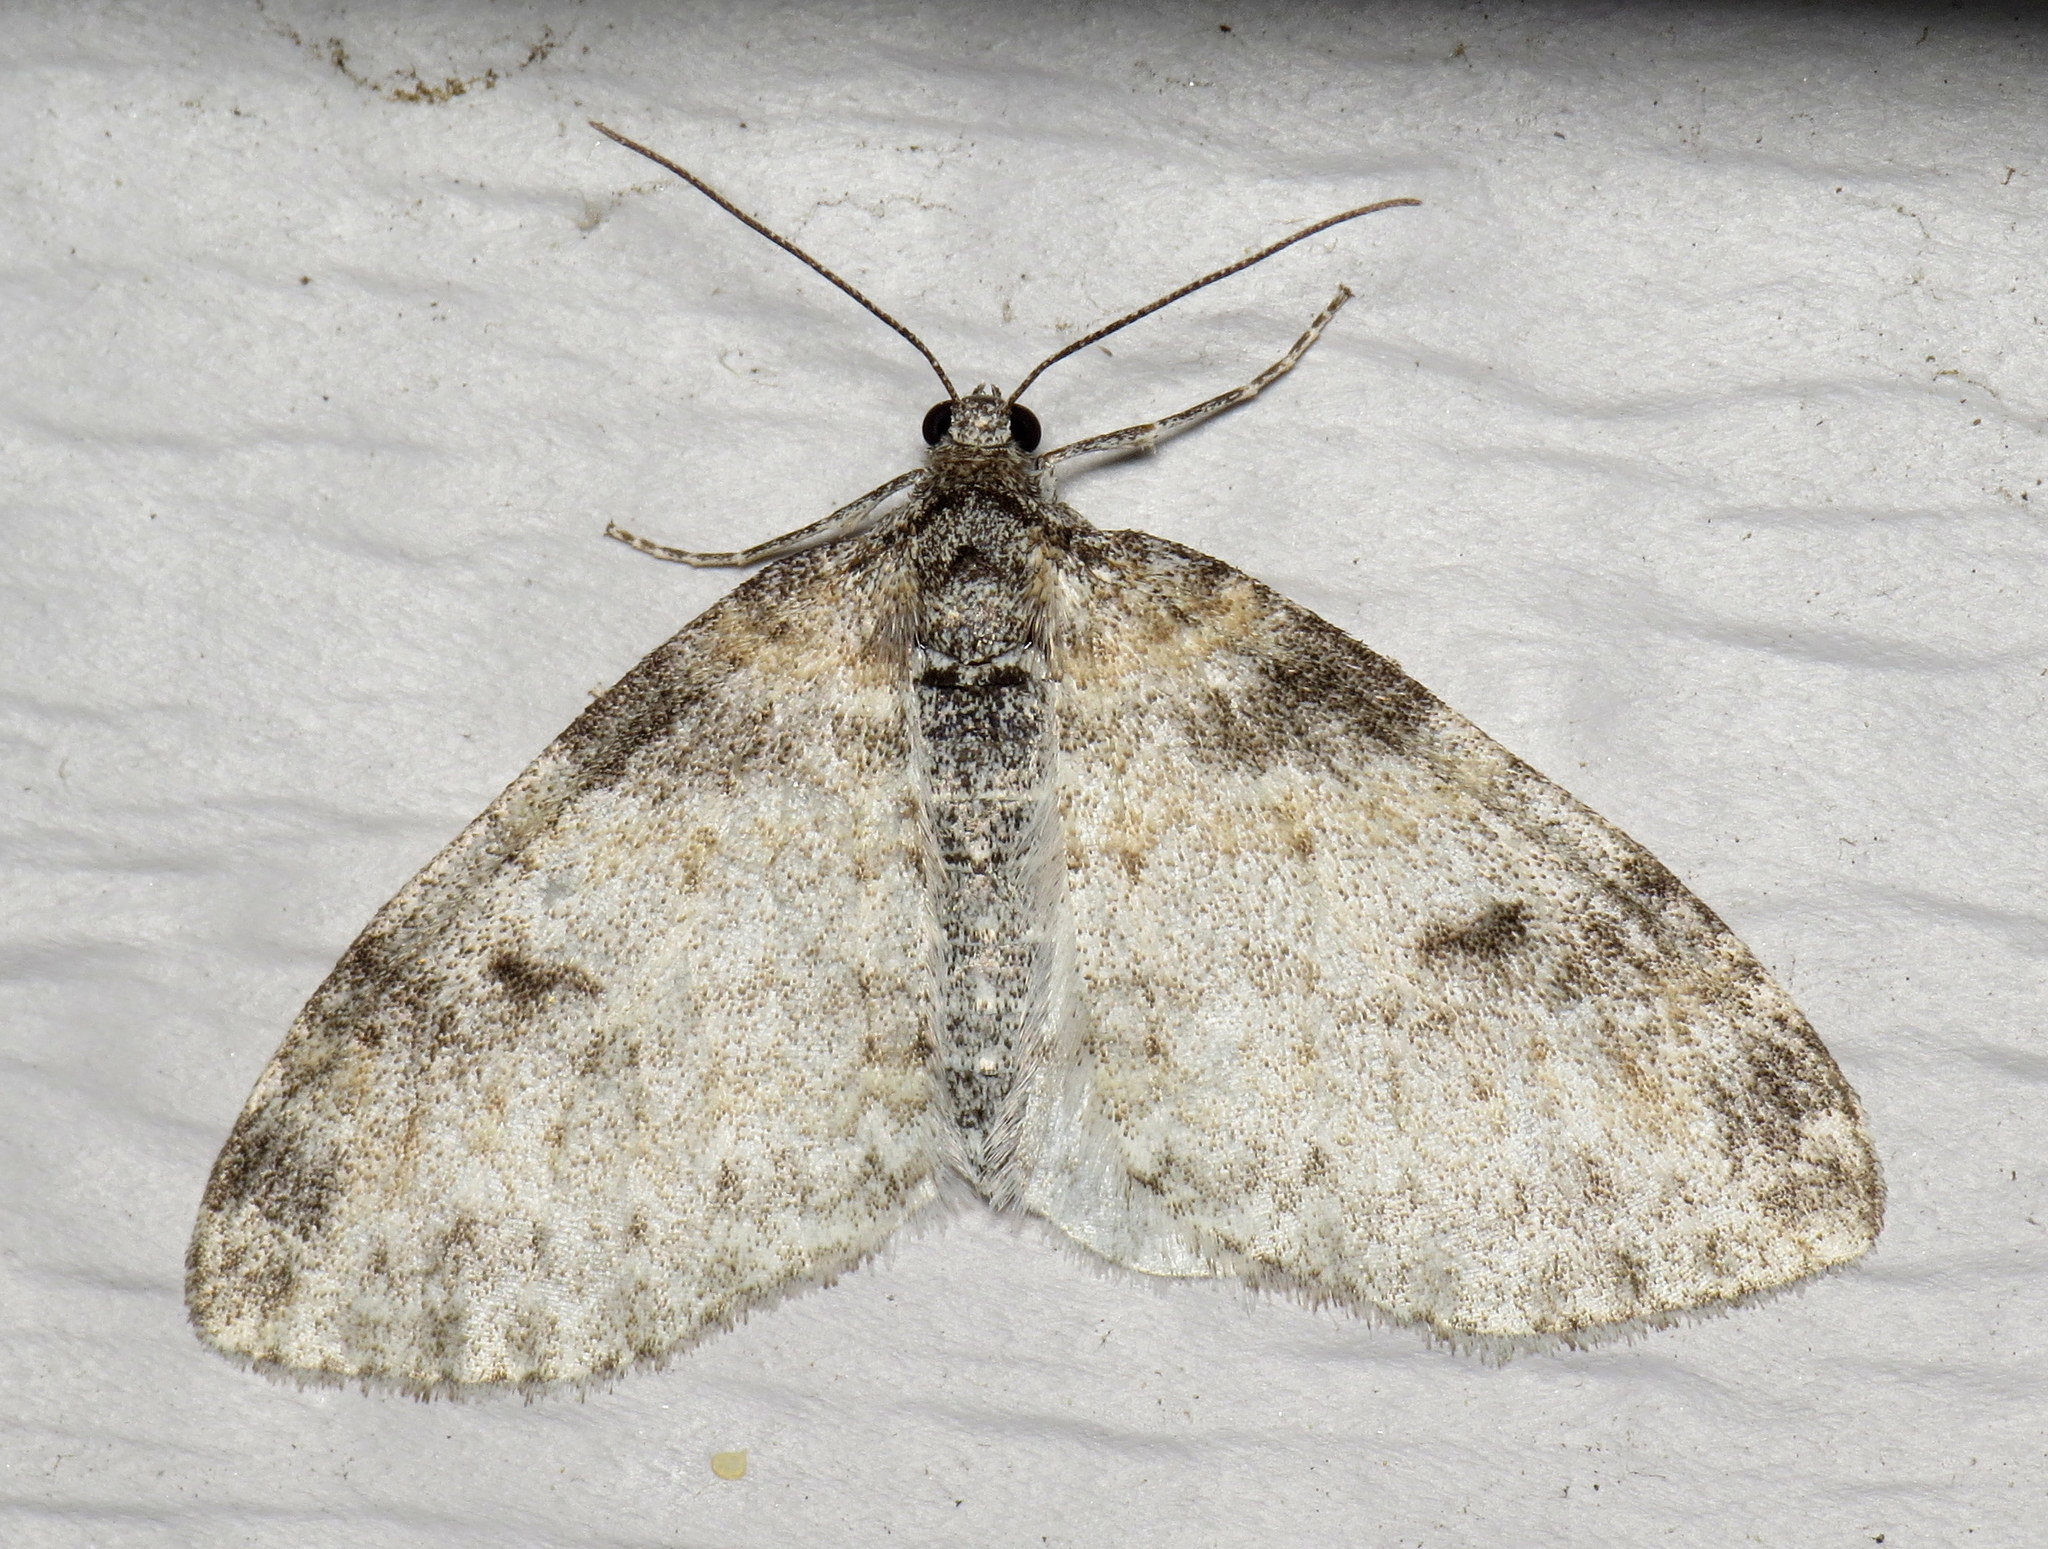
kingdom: Animalia
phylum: Arthropoda
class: Insecta
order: Lepidoptera
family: Geometridae
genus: Lobophora
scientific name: Lobophora nivigerata
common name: Powdered bigwing
